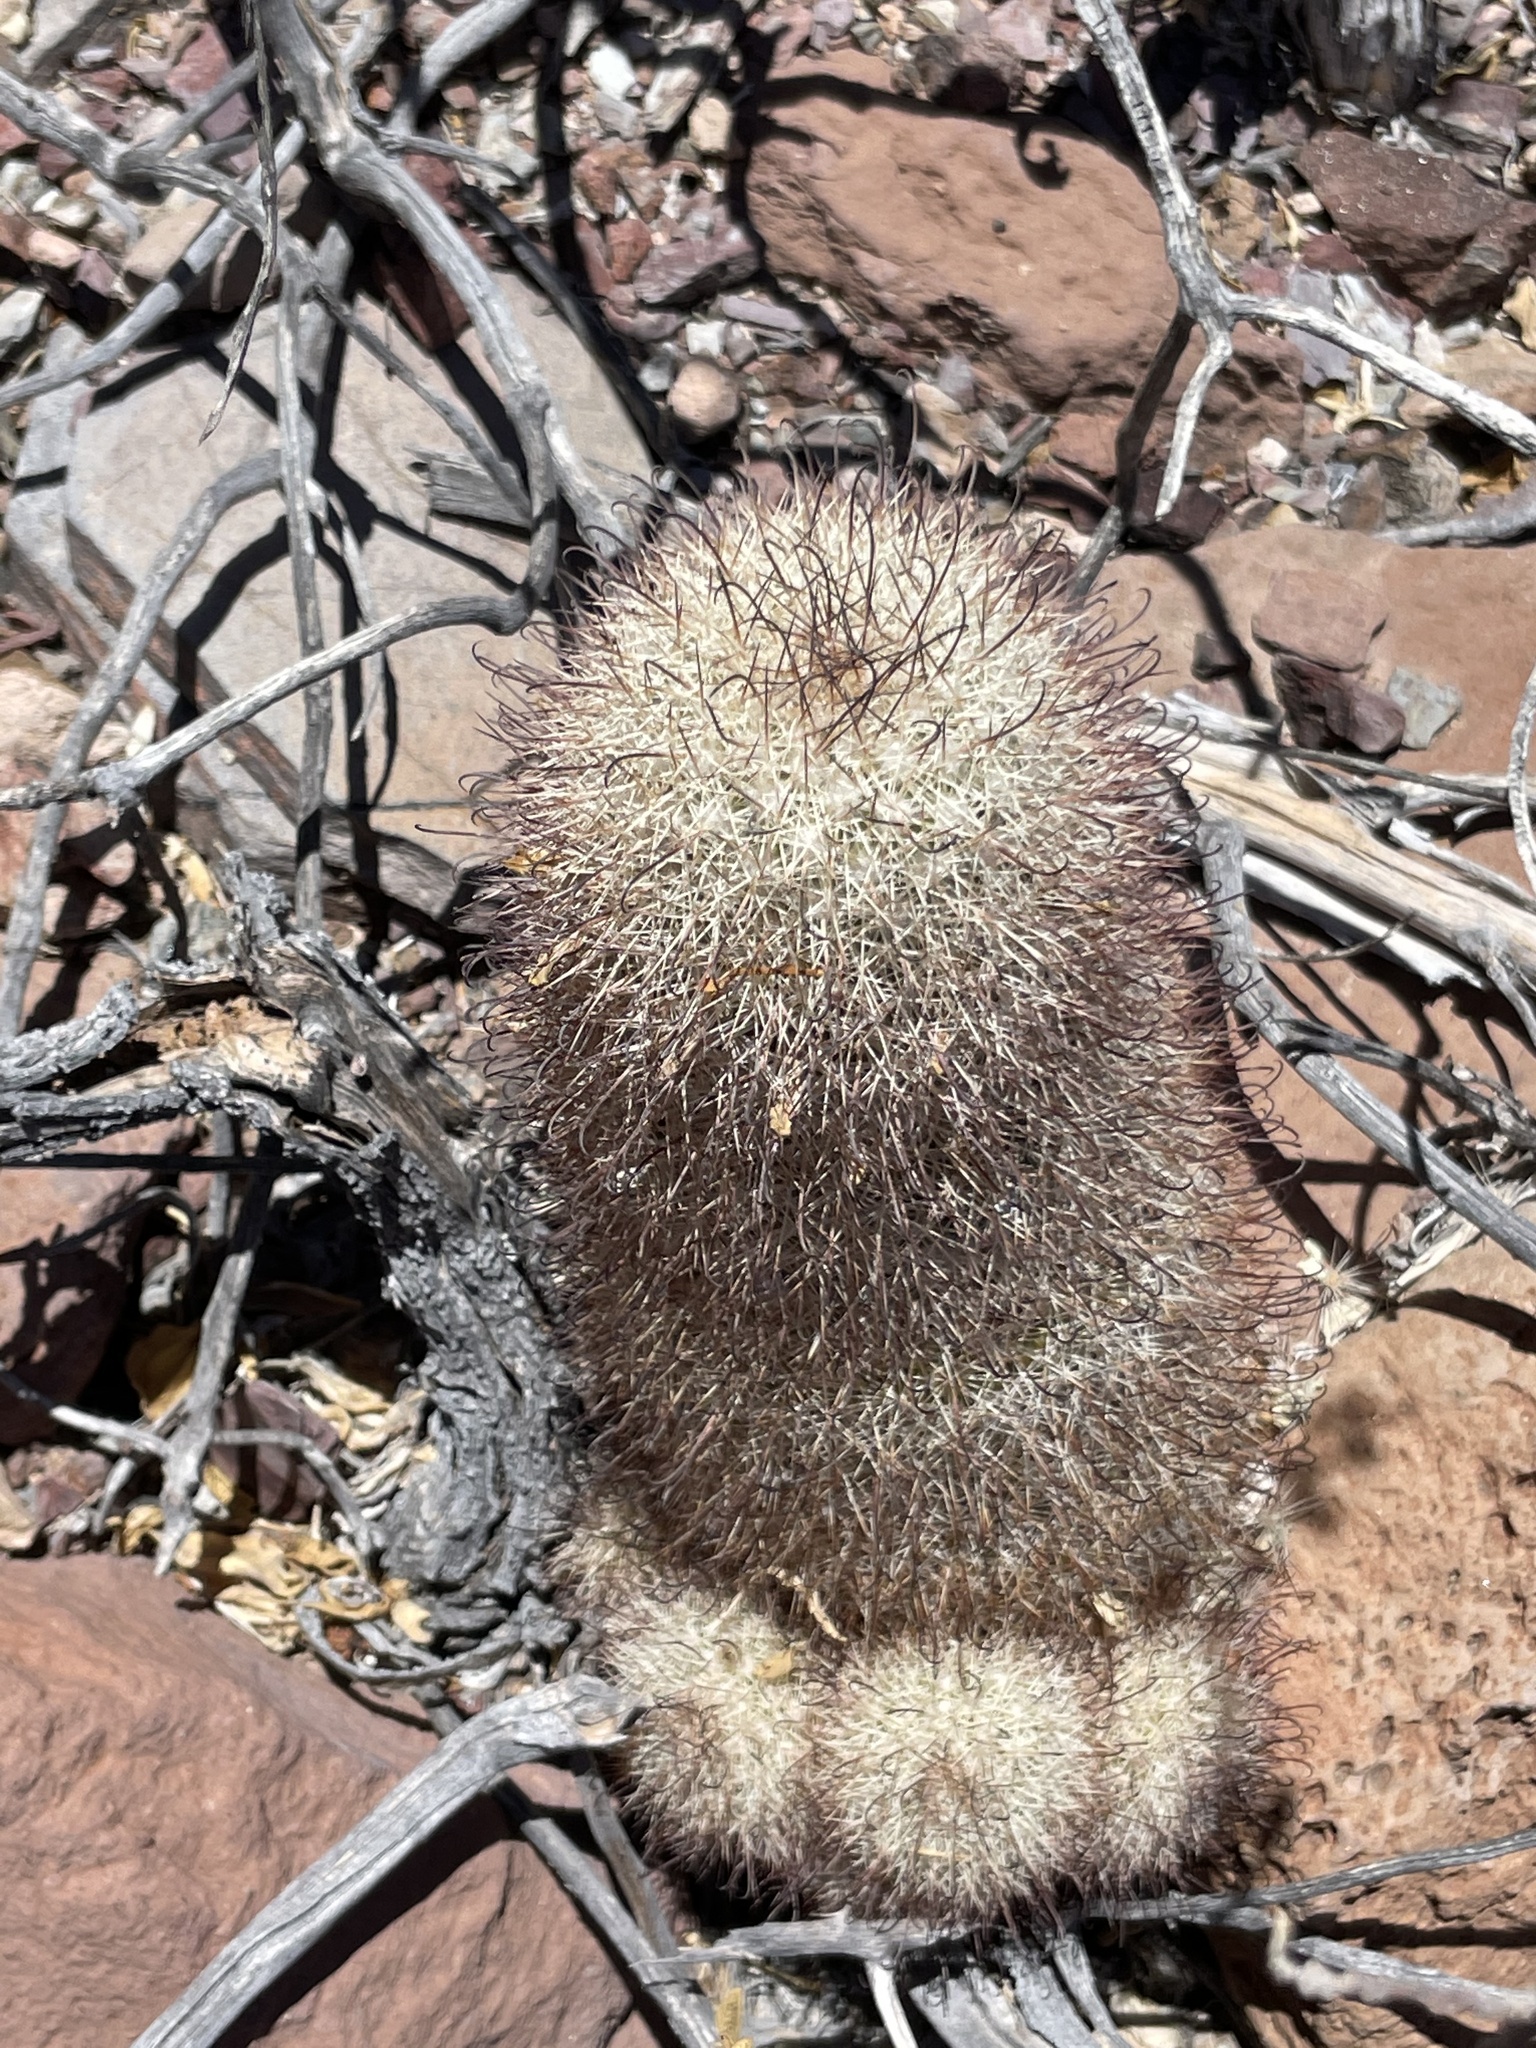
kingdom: Plantae
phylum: Tracheophyta
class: Magnoliopsida
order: Caryophyllales
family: Cactaceae
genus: Cochemiea
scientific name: Cochemiea angelensis
